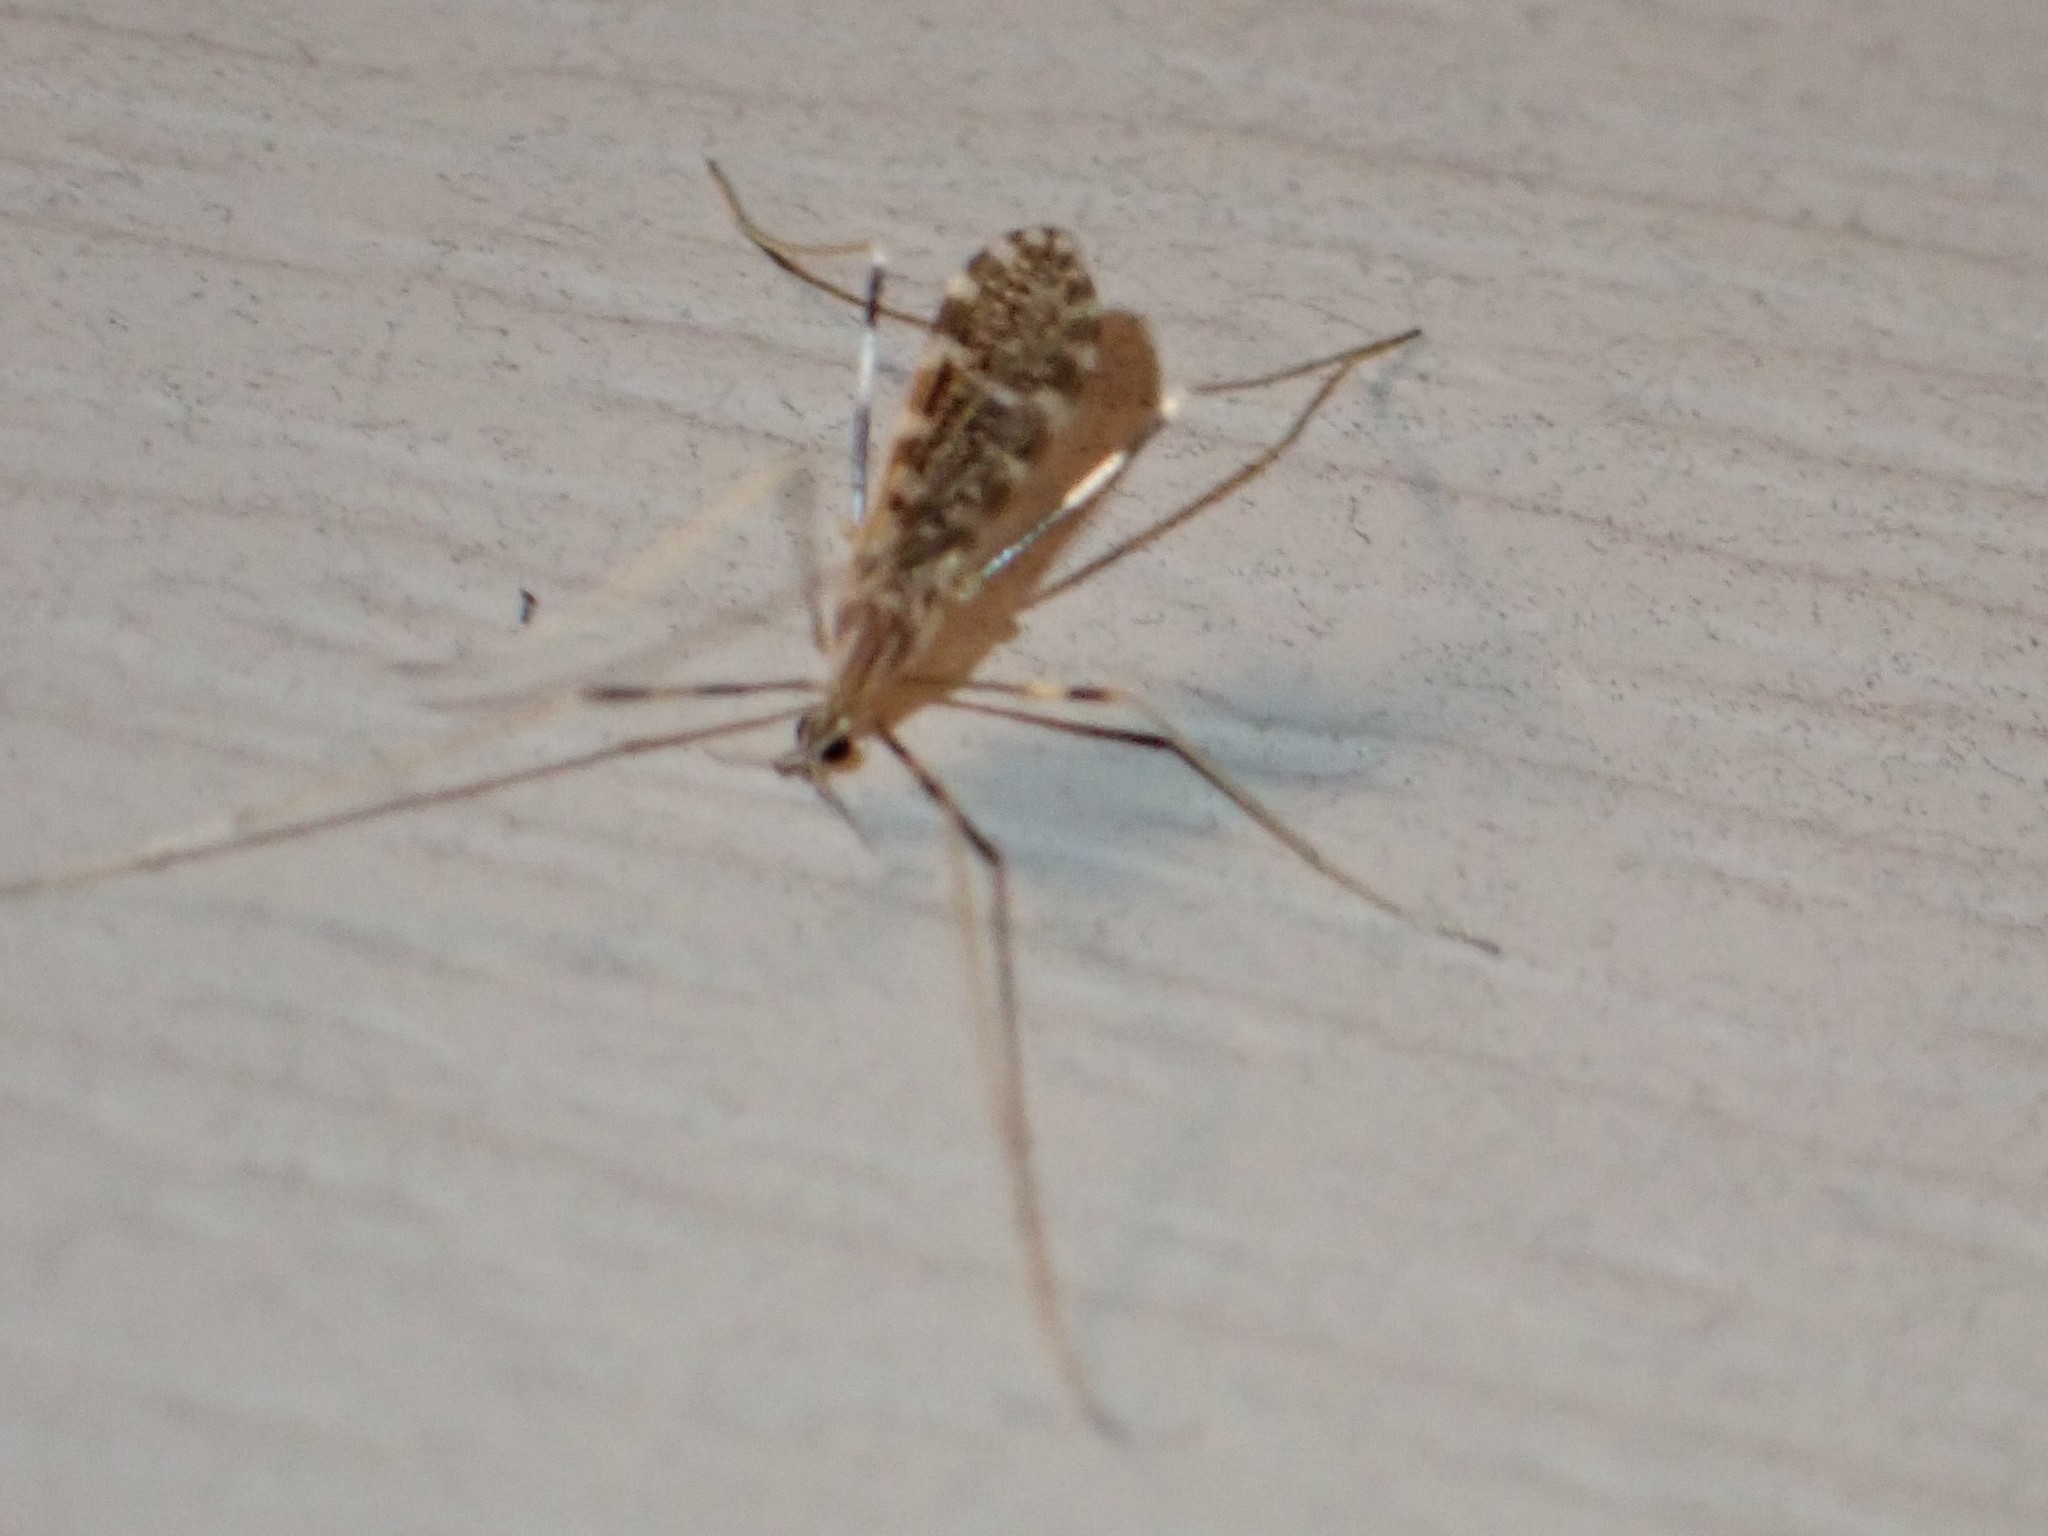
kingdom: Animalia
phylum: Arthropoda
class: Insecta
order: Diptera
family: Limoniidae
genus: Erioptera
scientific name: Erioptera caliptera
